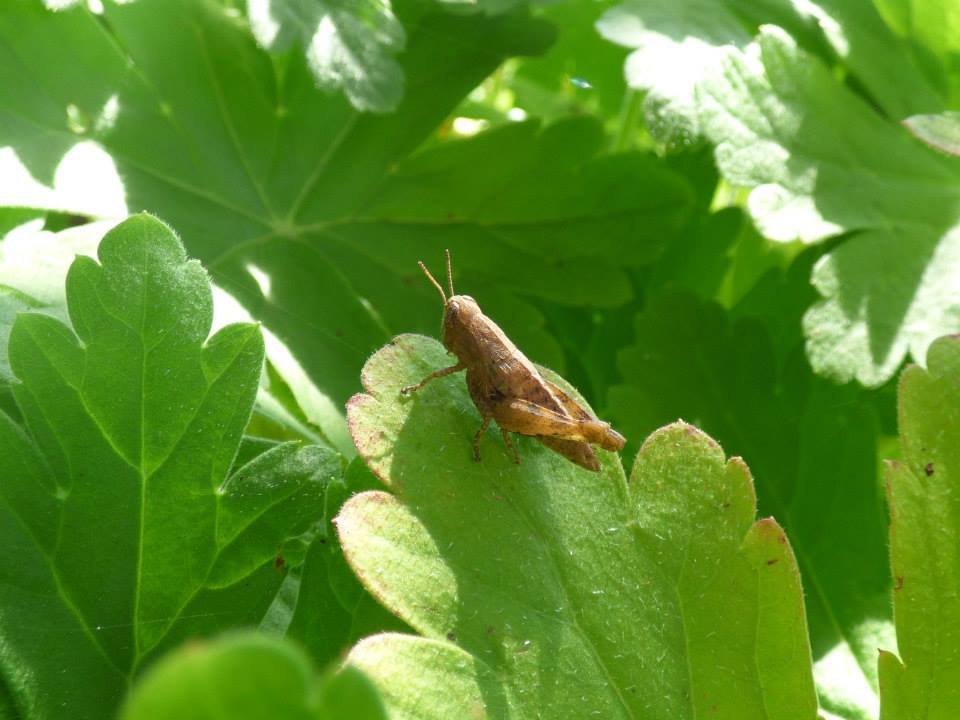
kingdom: Animalia
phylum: Arthropoda
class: Insecta
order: Orthoptera
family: Acrididae
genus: Pezotettix
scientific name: Pezotettix giornae
